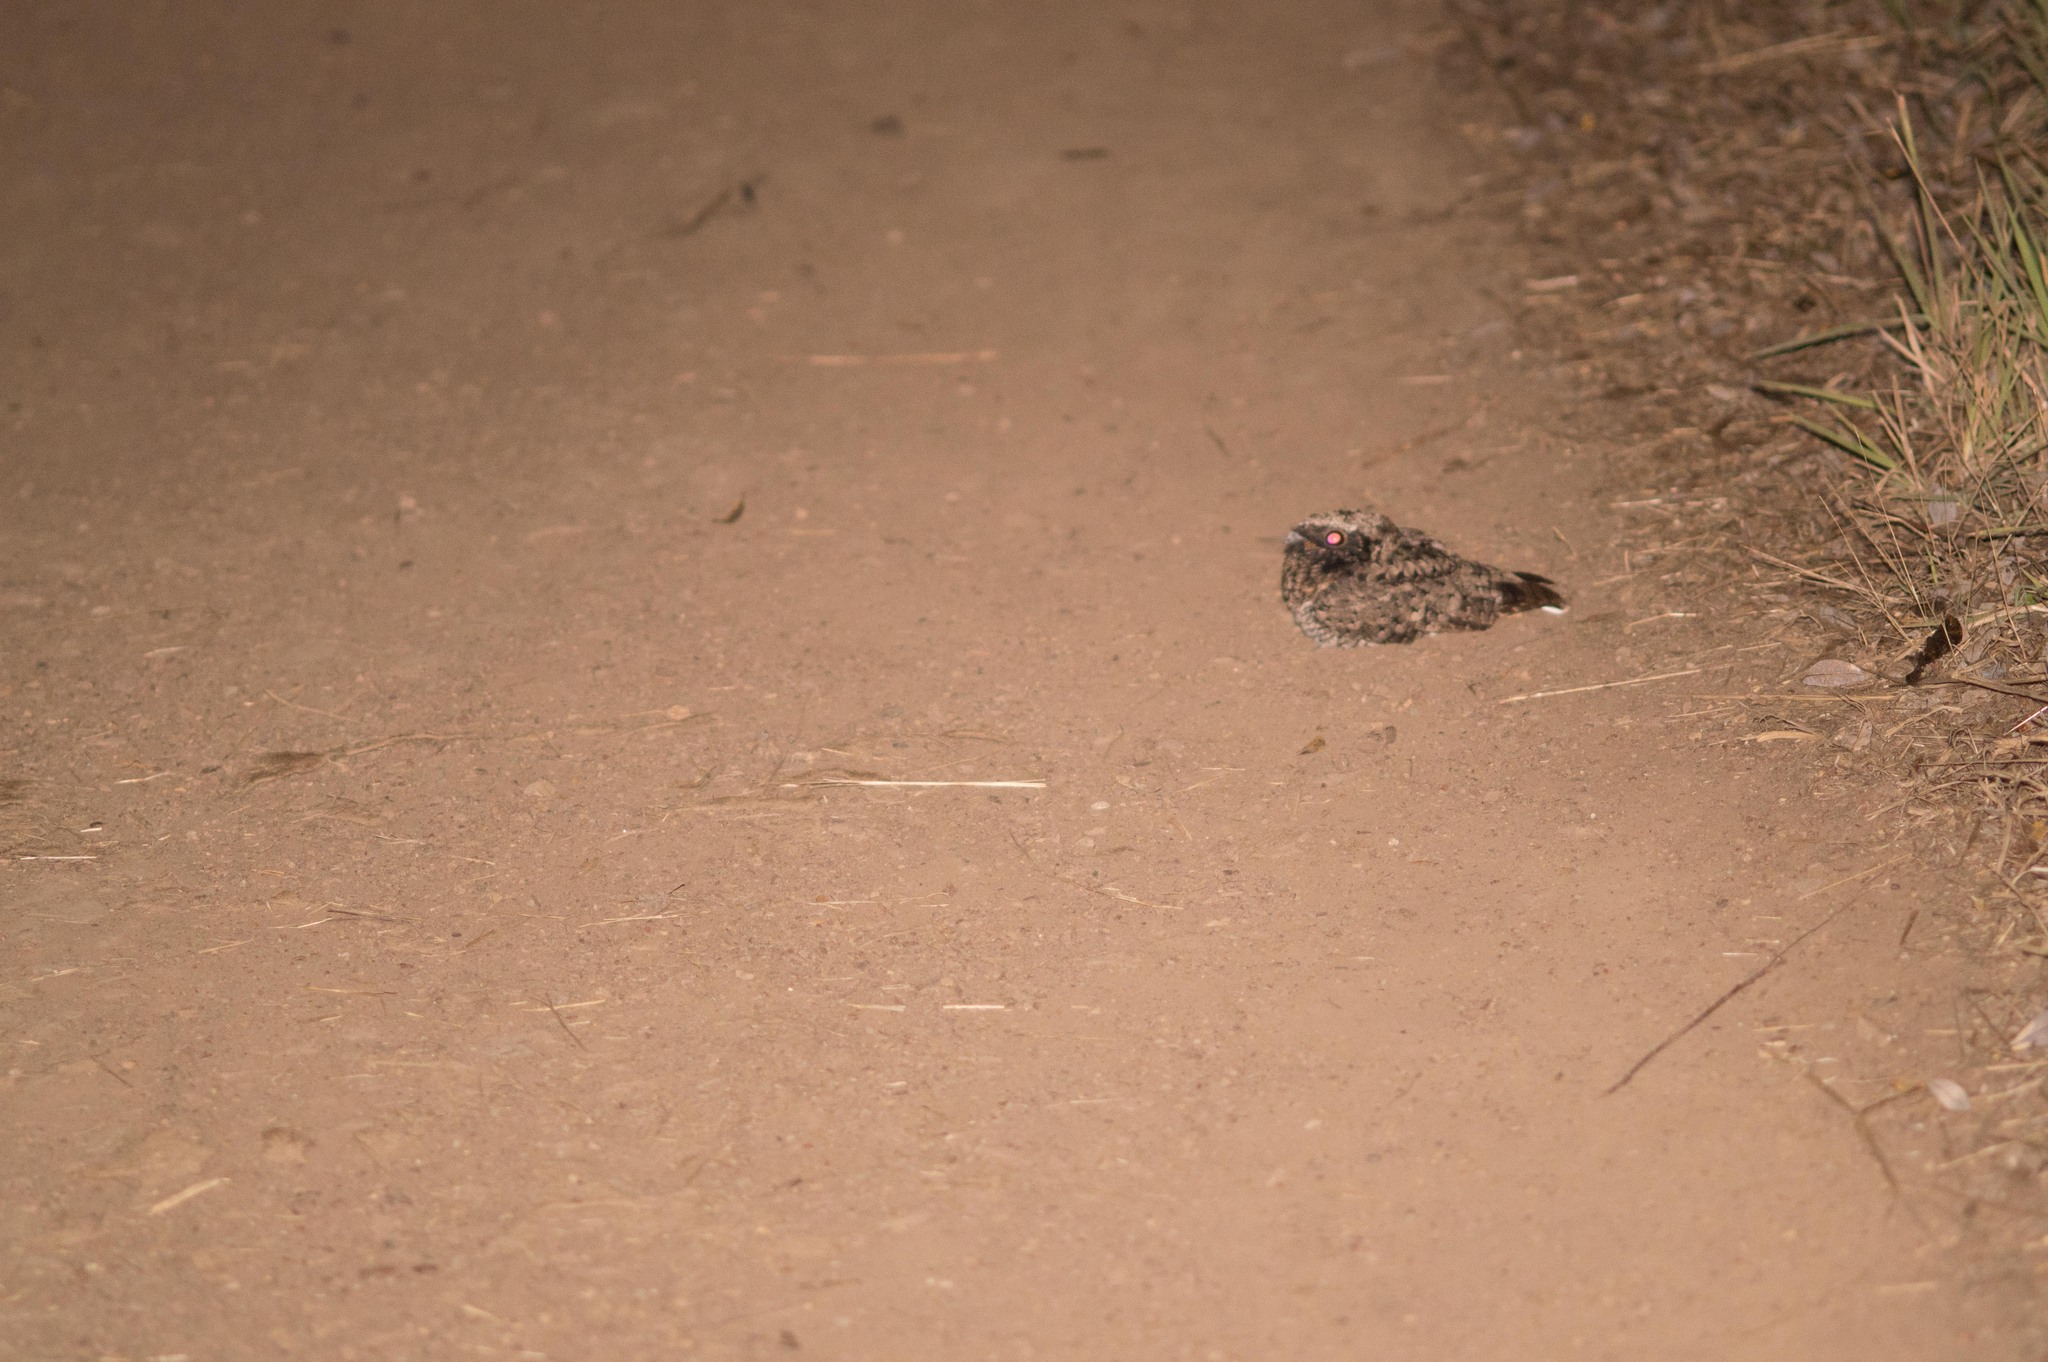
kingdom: Animalia
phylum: Chordata
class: Aves
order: Caprimulgiformes
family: Caprimulgidae
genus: Phalaenoptilus
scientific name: Phalaenoptilus nuttallii
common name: Common poorwill
